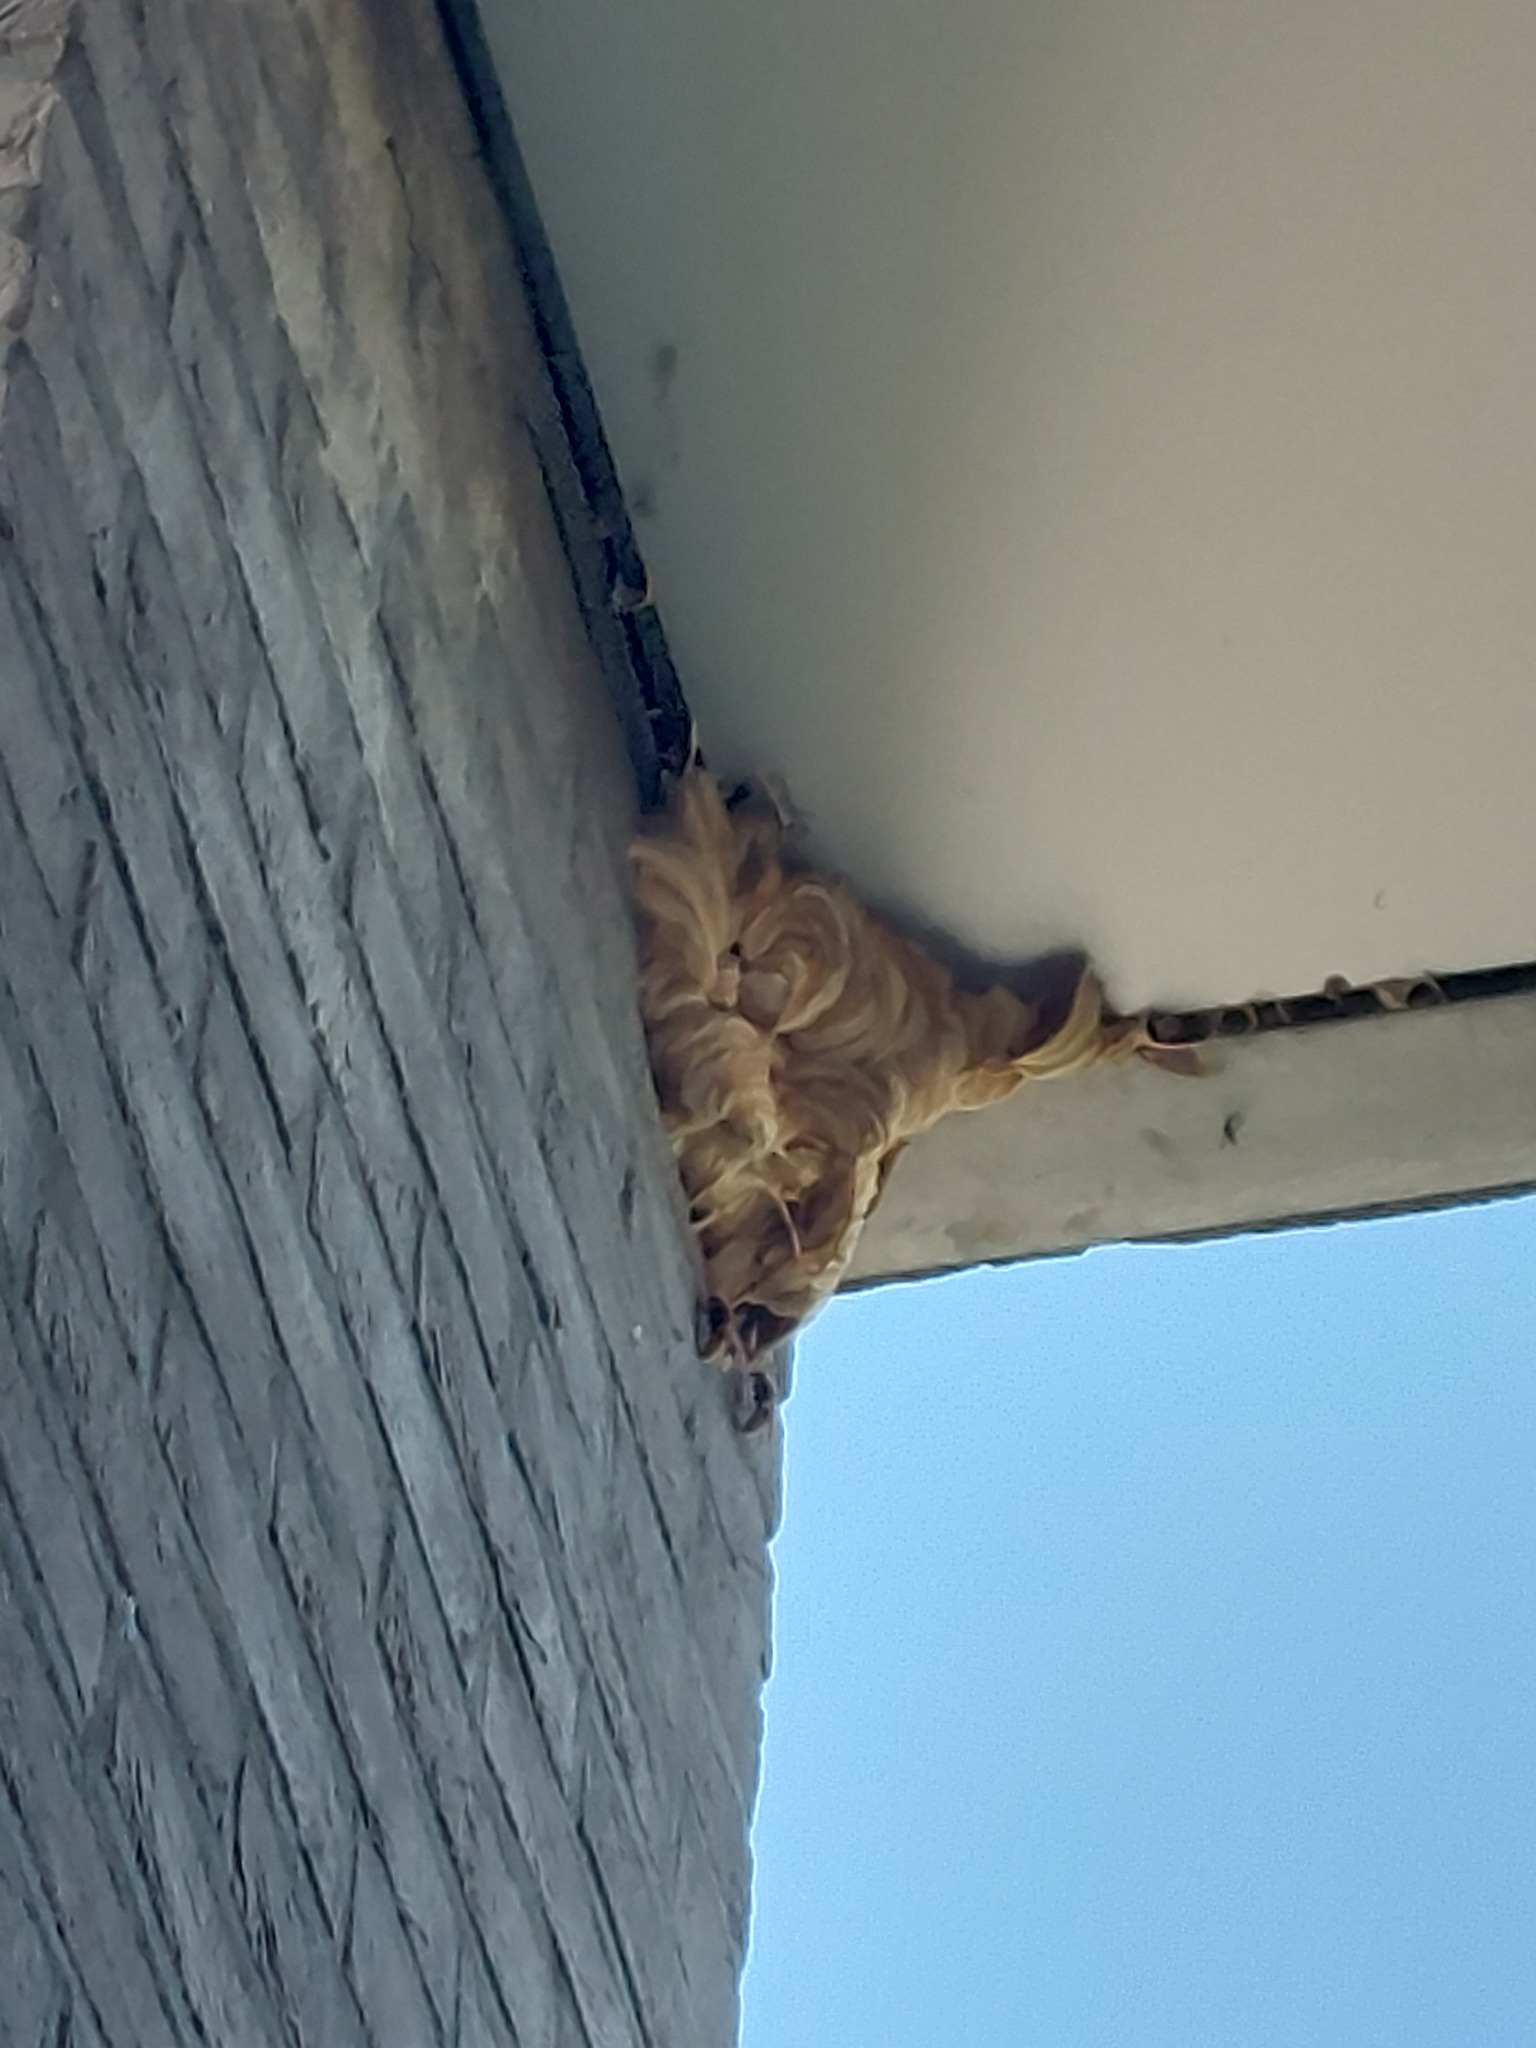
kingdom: Animalia
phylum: Arthropoda
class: Insecta
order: Hymenoptera
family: Vespidae
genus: Vespa
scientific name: Vespa crabro
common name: Hornet
